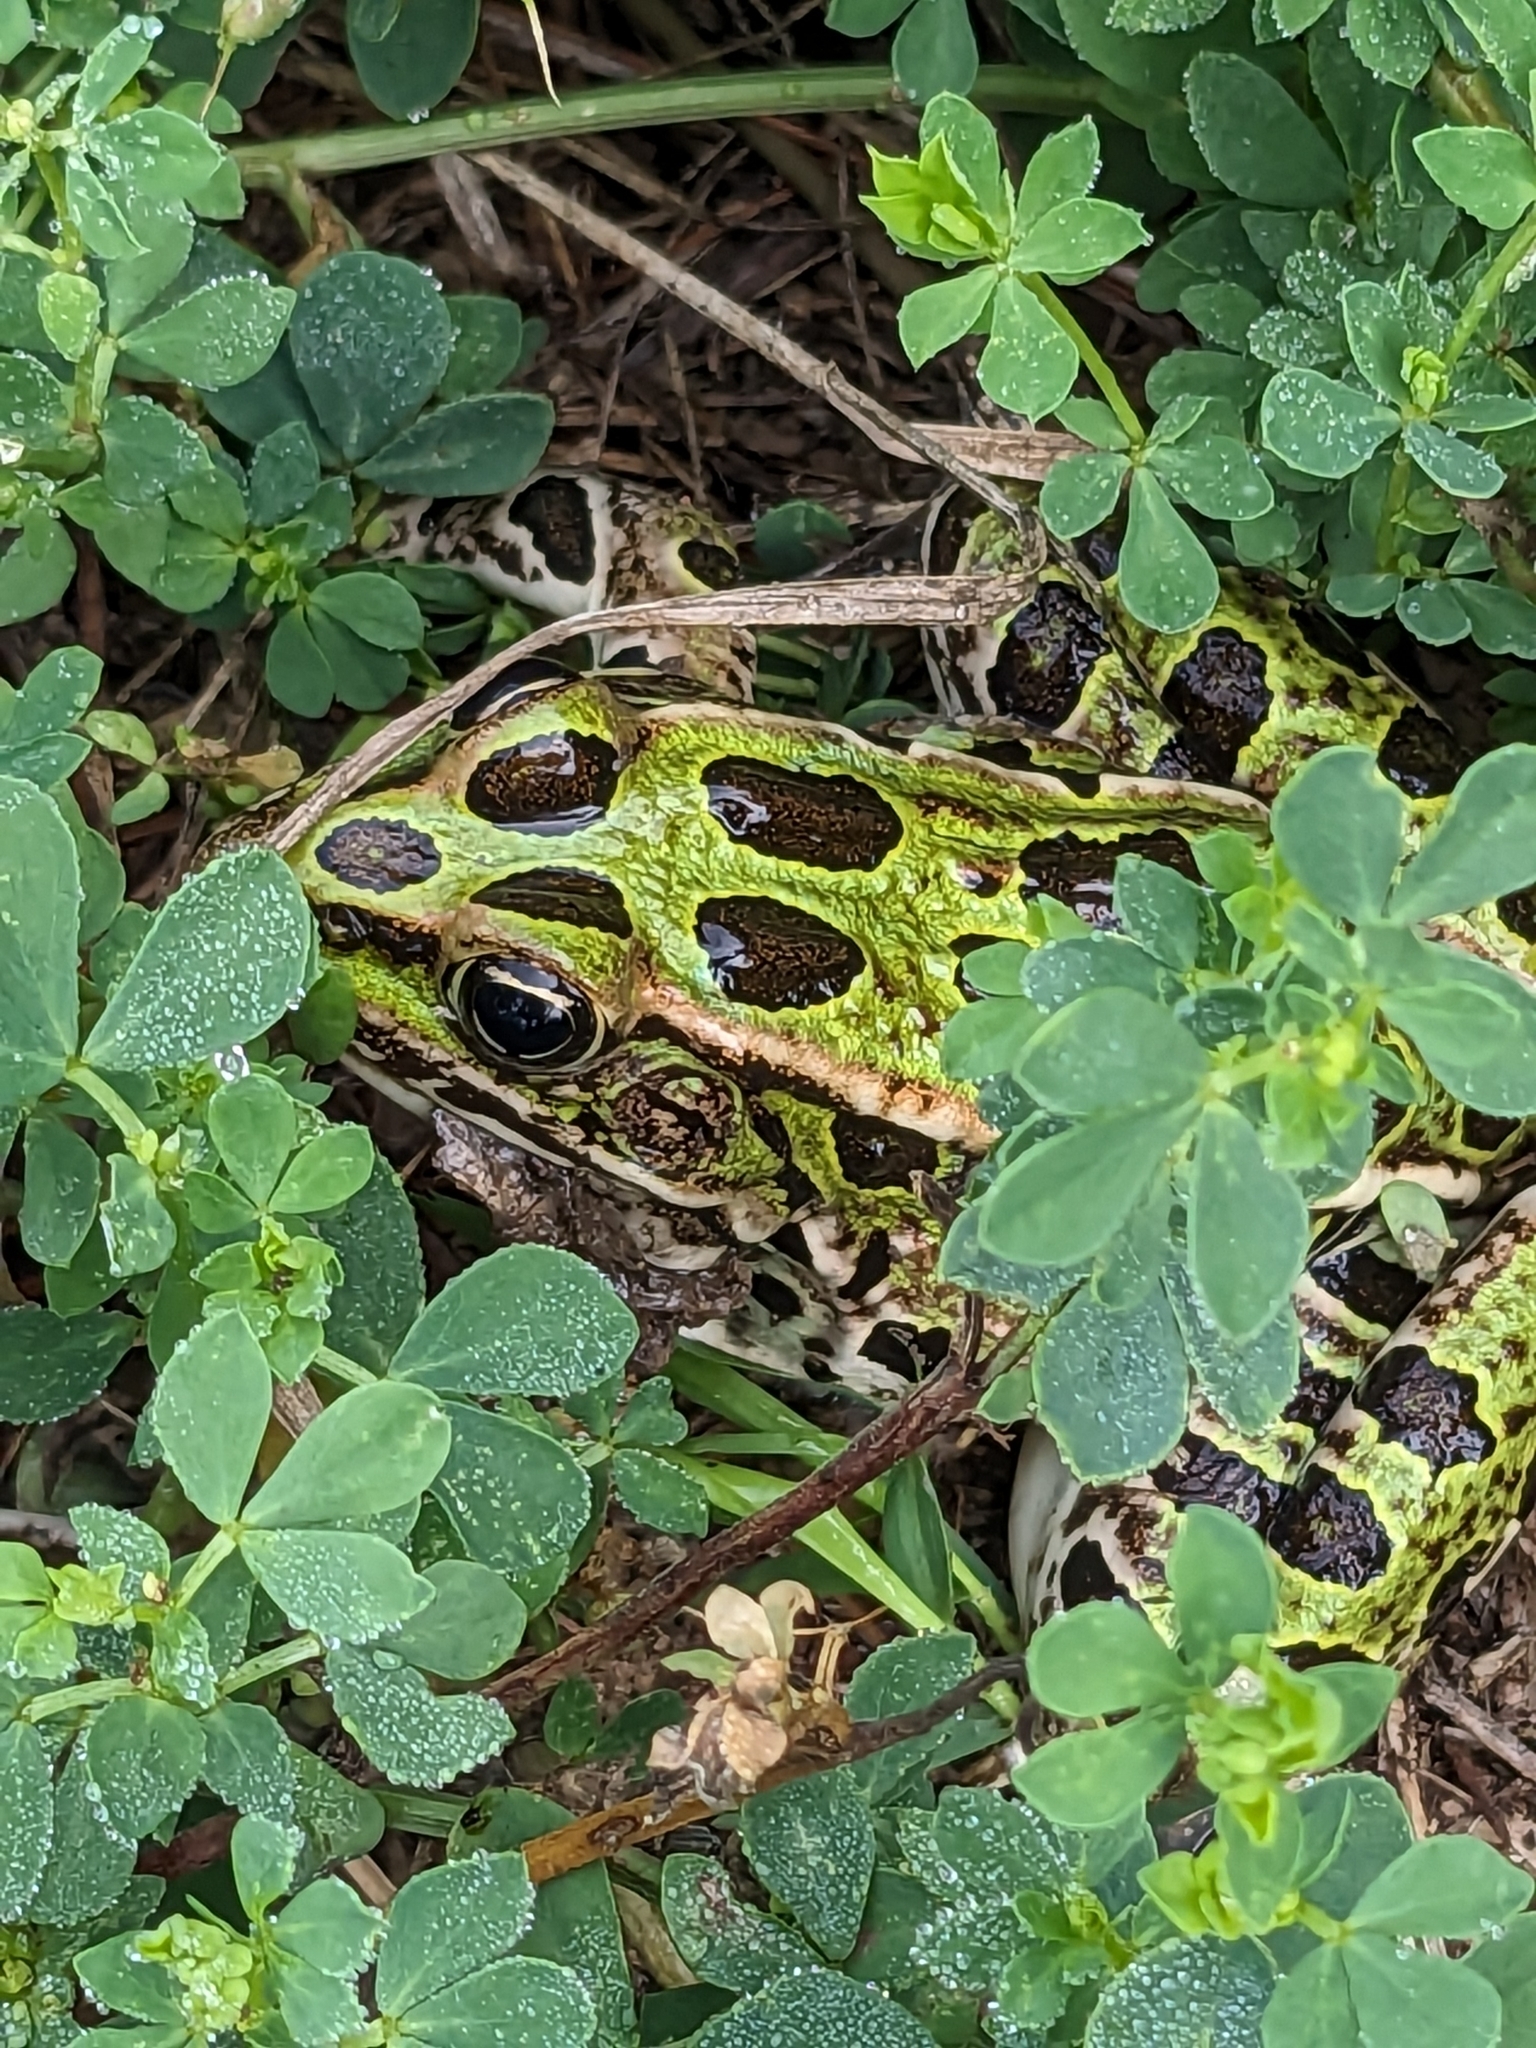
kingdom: Animalia
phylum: Chordata
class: Amphibia
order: Anura
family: Ranidae
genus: Lithobates
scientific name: Lithobates pipiens
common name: Northern leopard frog
